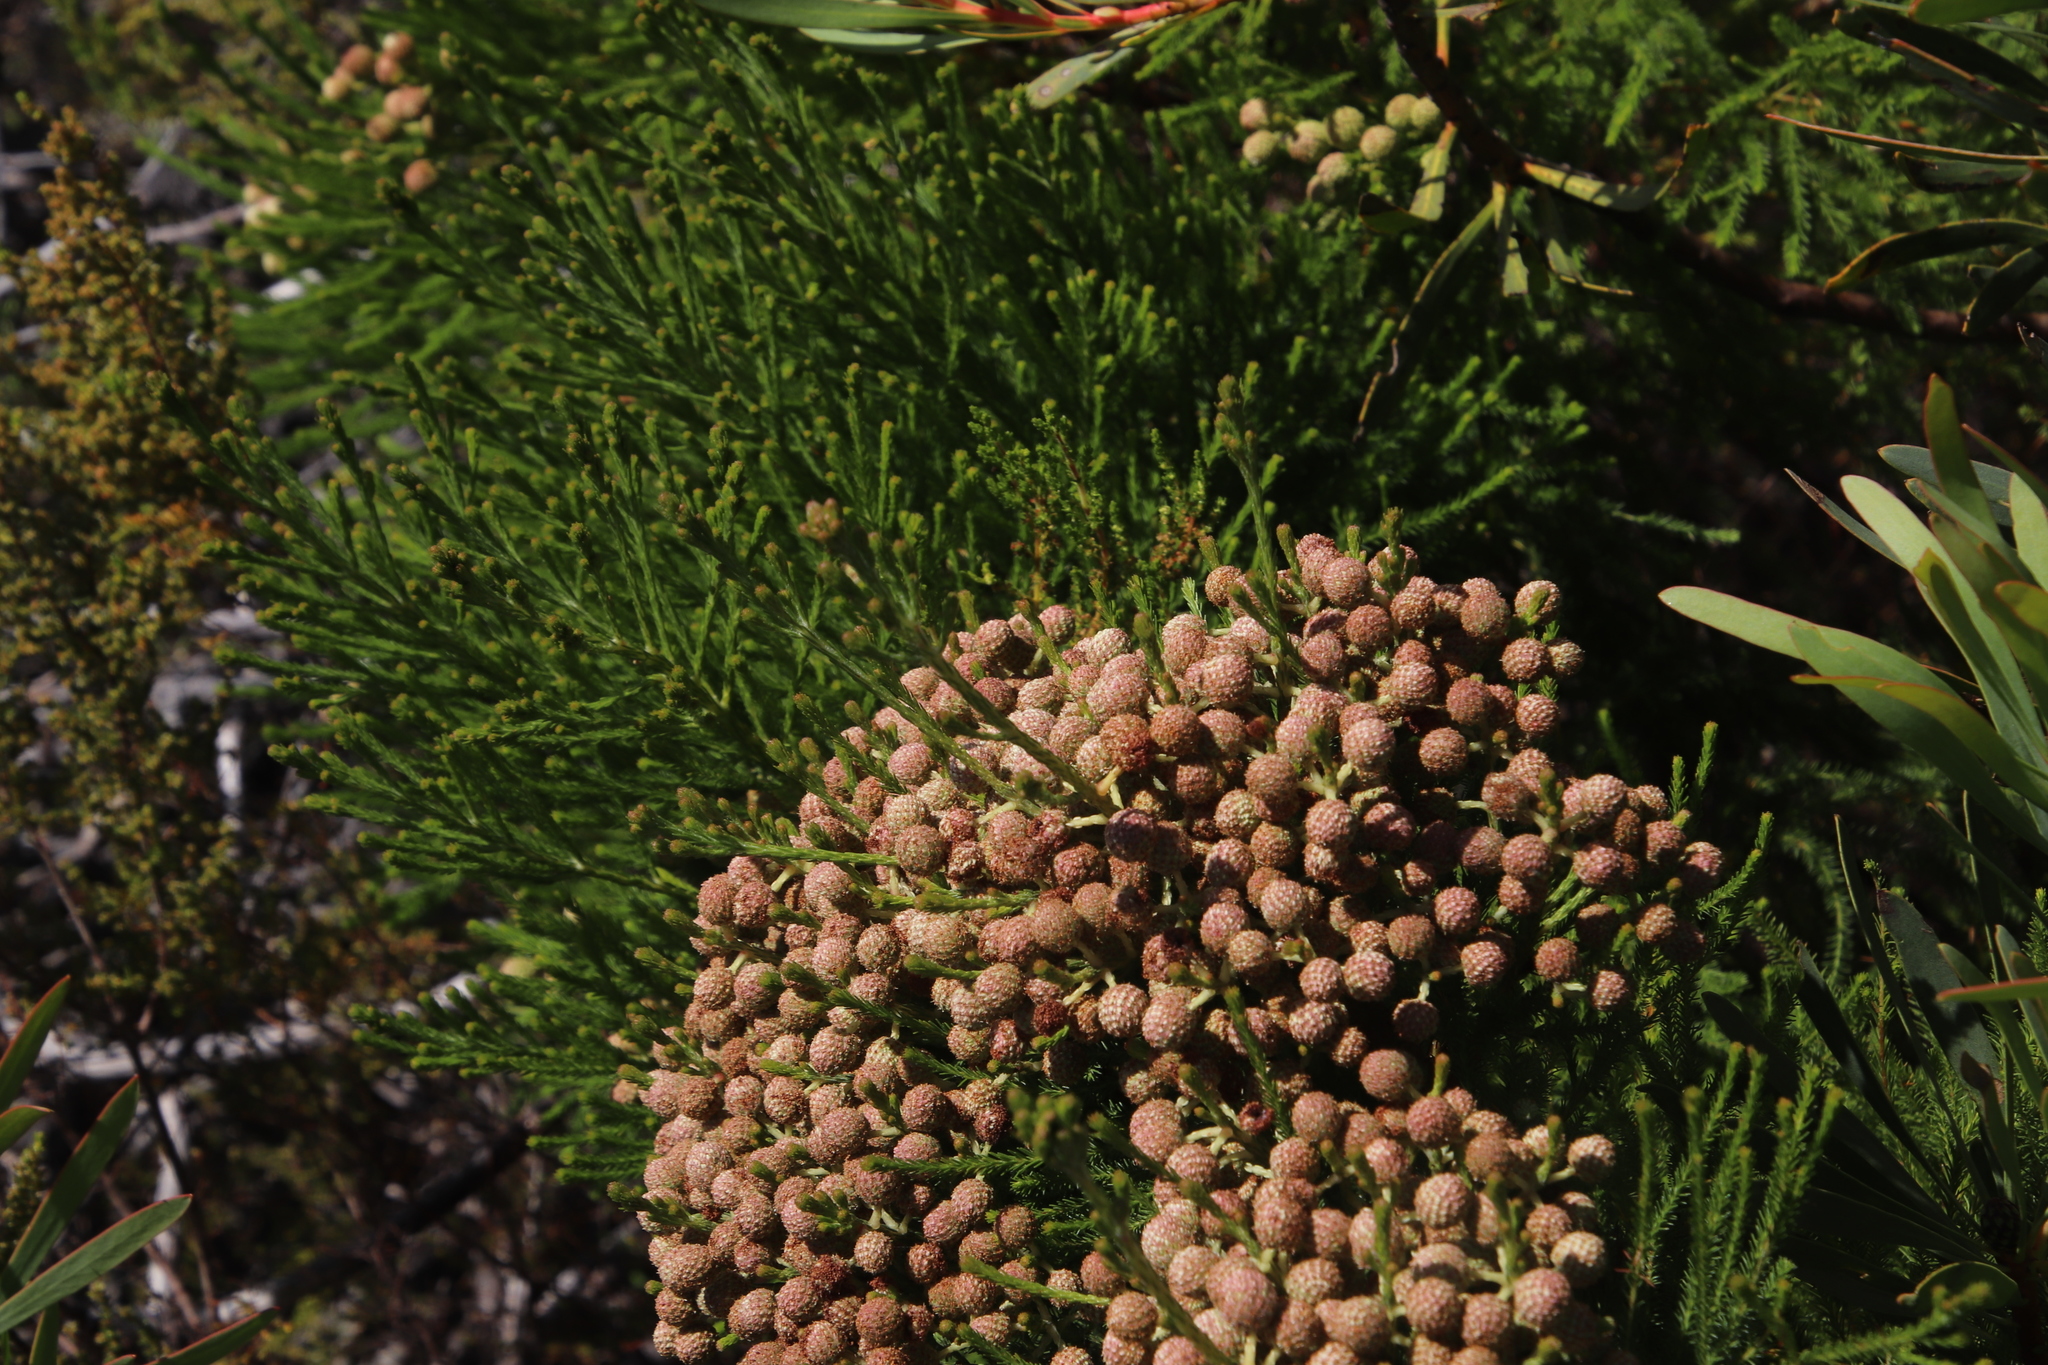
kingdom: Plantae
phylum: Tracheophyta
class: Magnoliopsida
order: Bruniales
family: Bruniaceae
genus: Berzelia
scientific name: Berzelia lanuginosa
